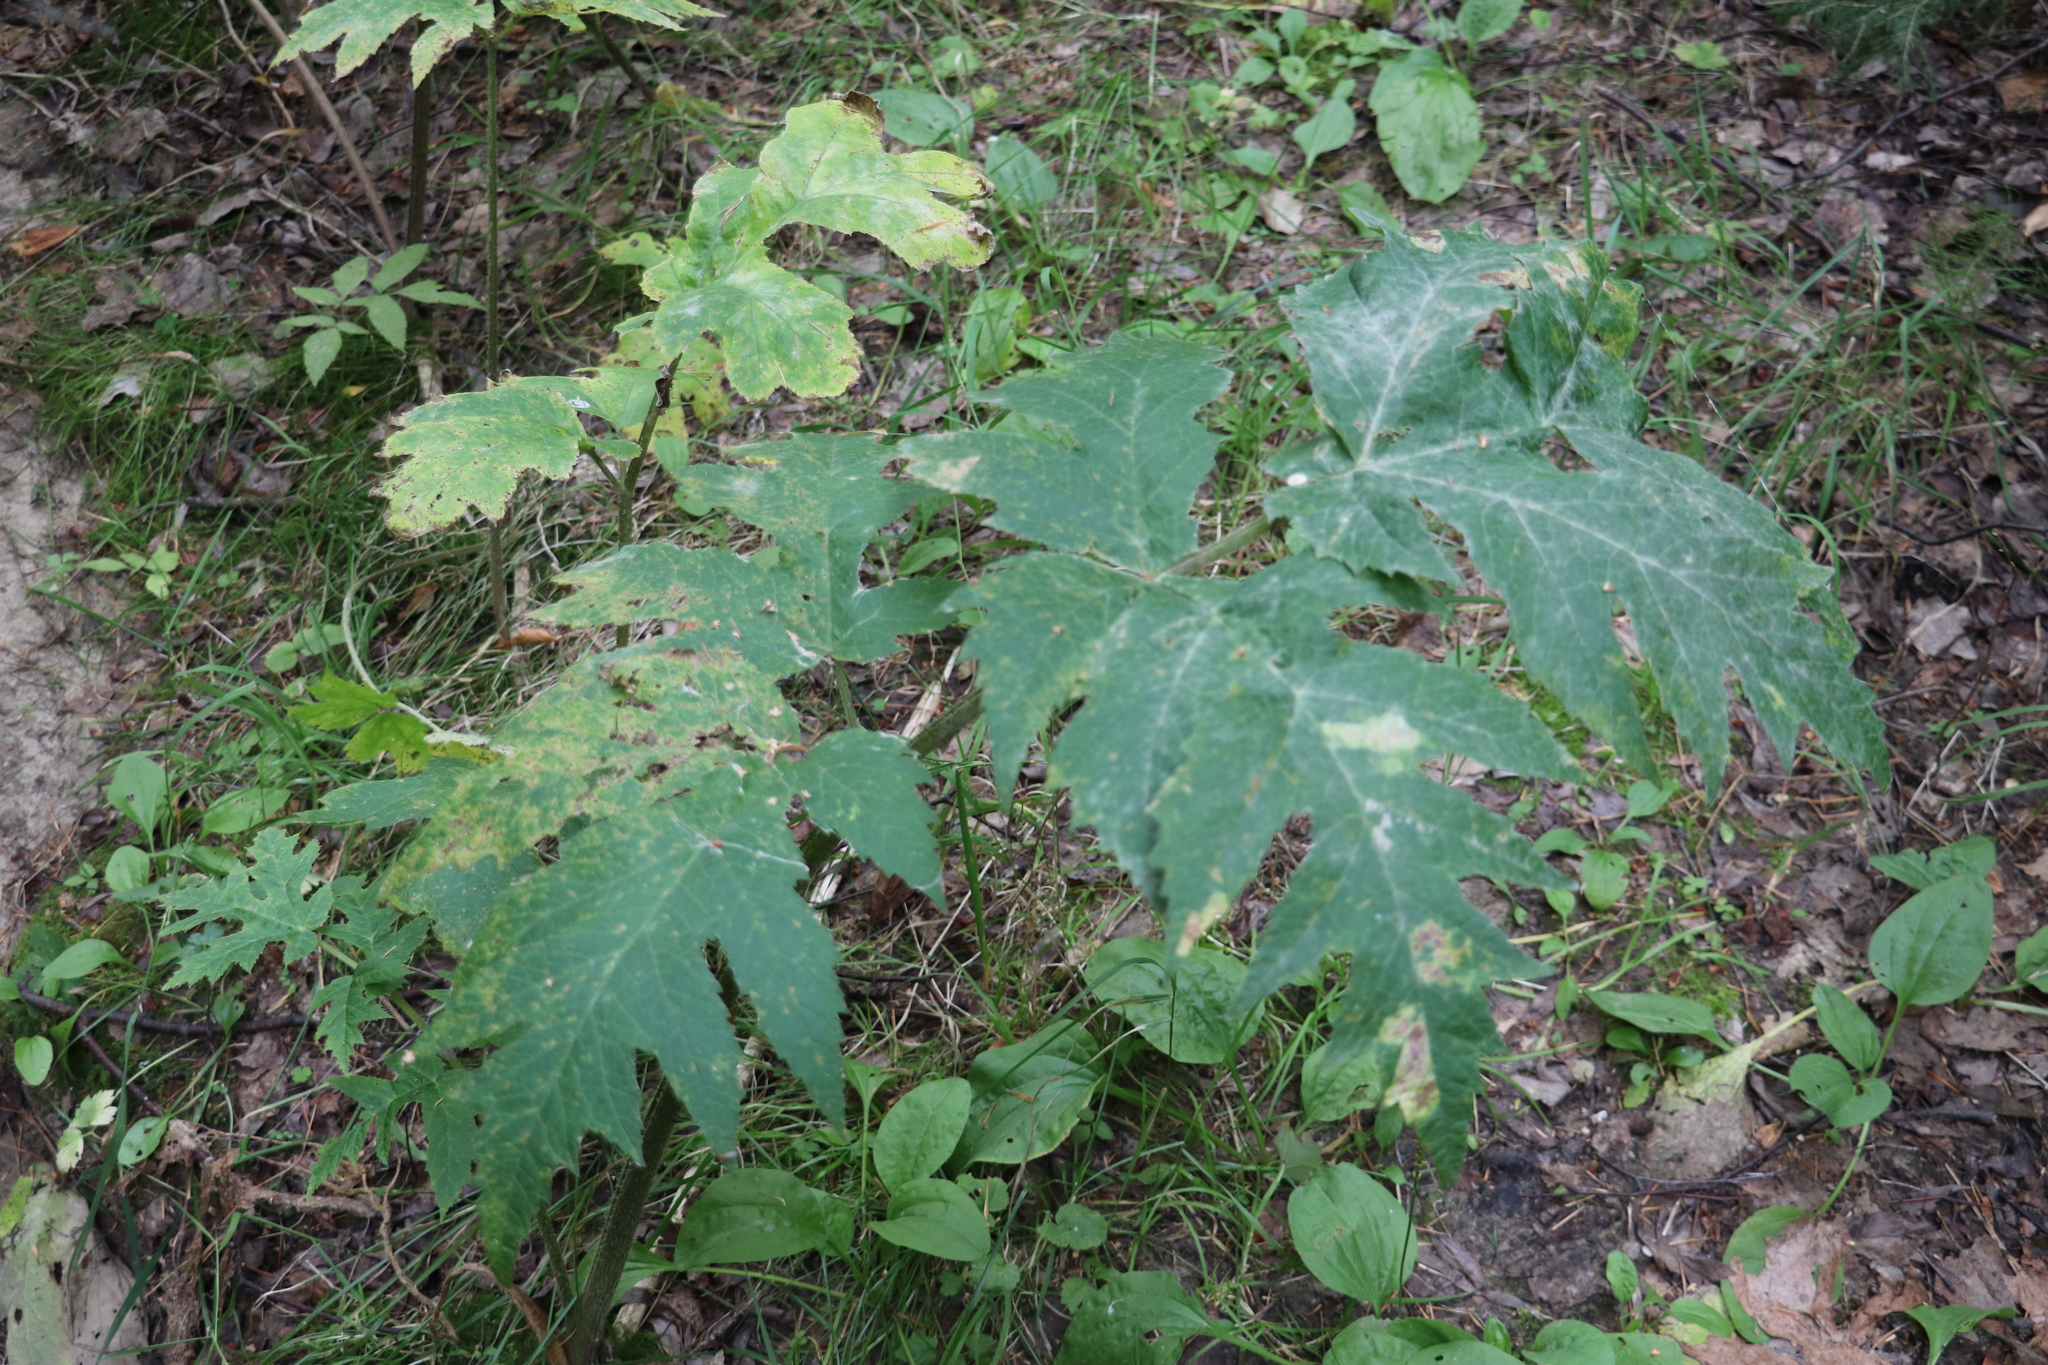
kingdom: Plantae
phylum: Tracheophyta
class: Magnoliopsida
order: Apiales
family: Apiaceae
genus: Heracleum
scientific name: Heracleum dissectum
